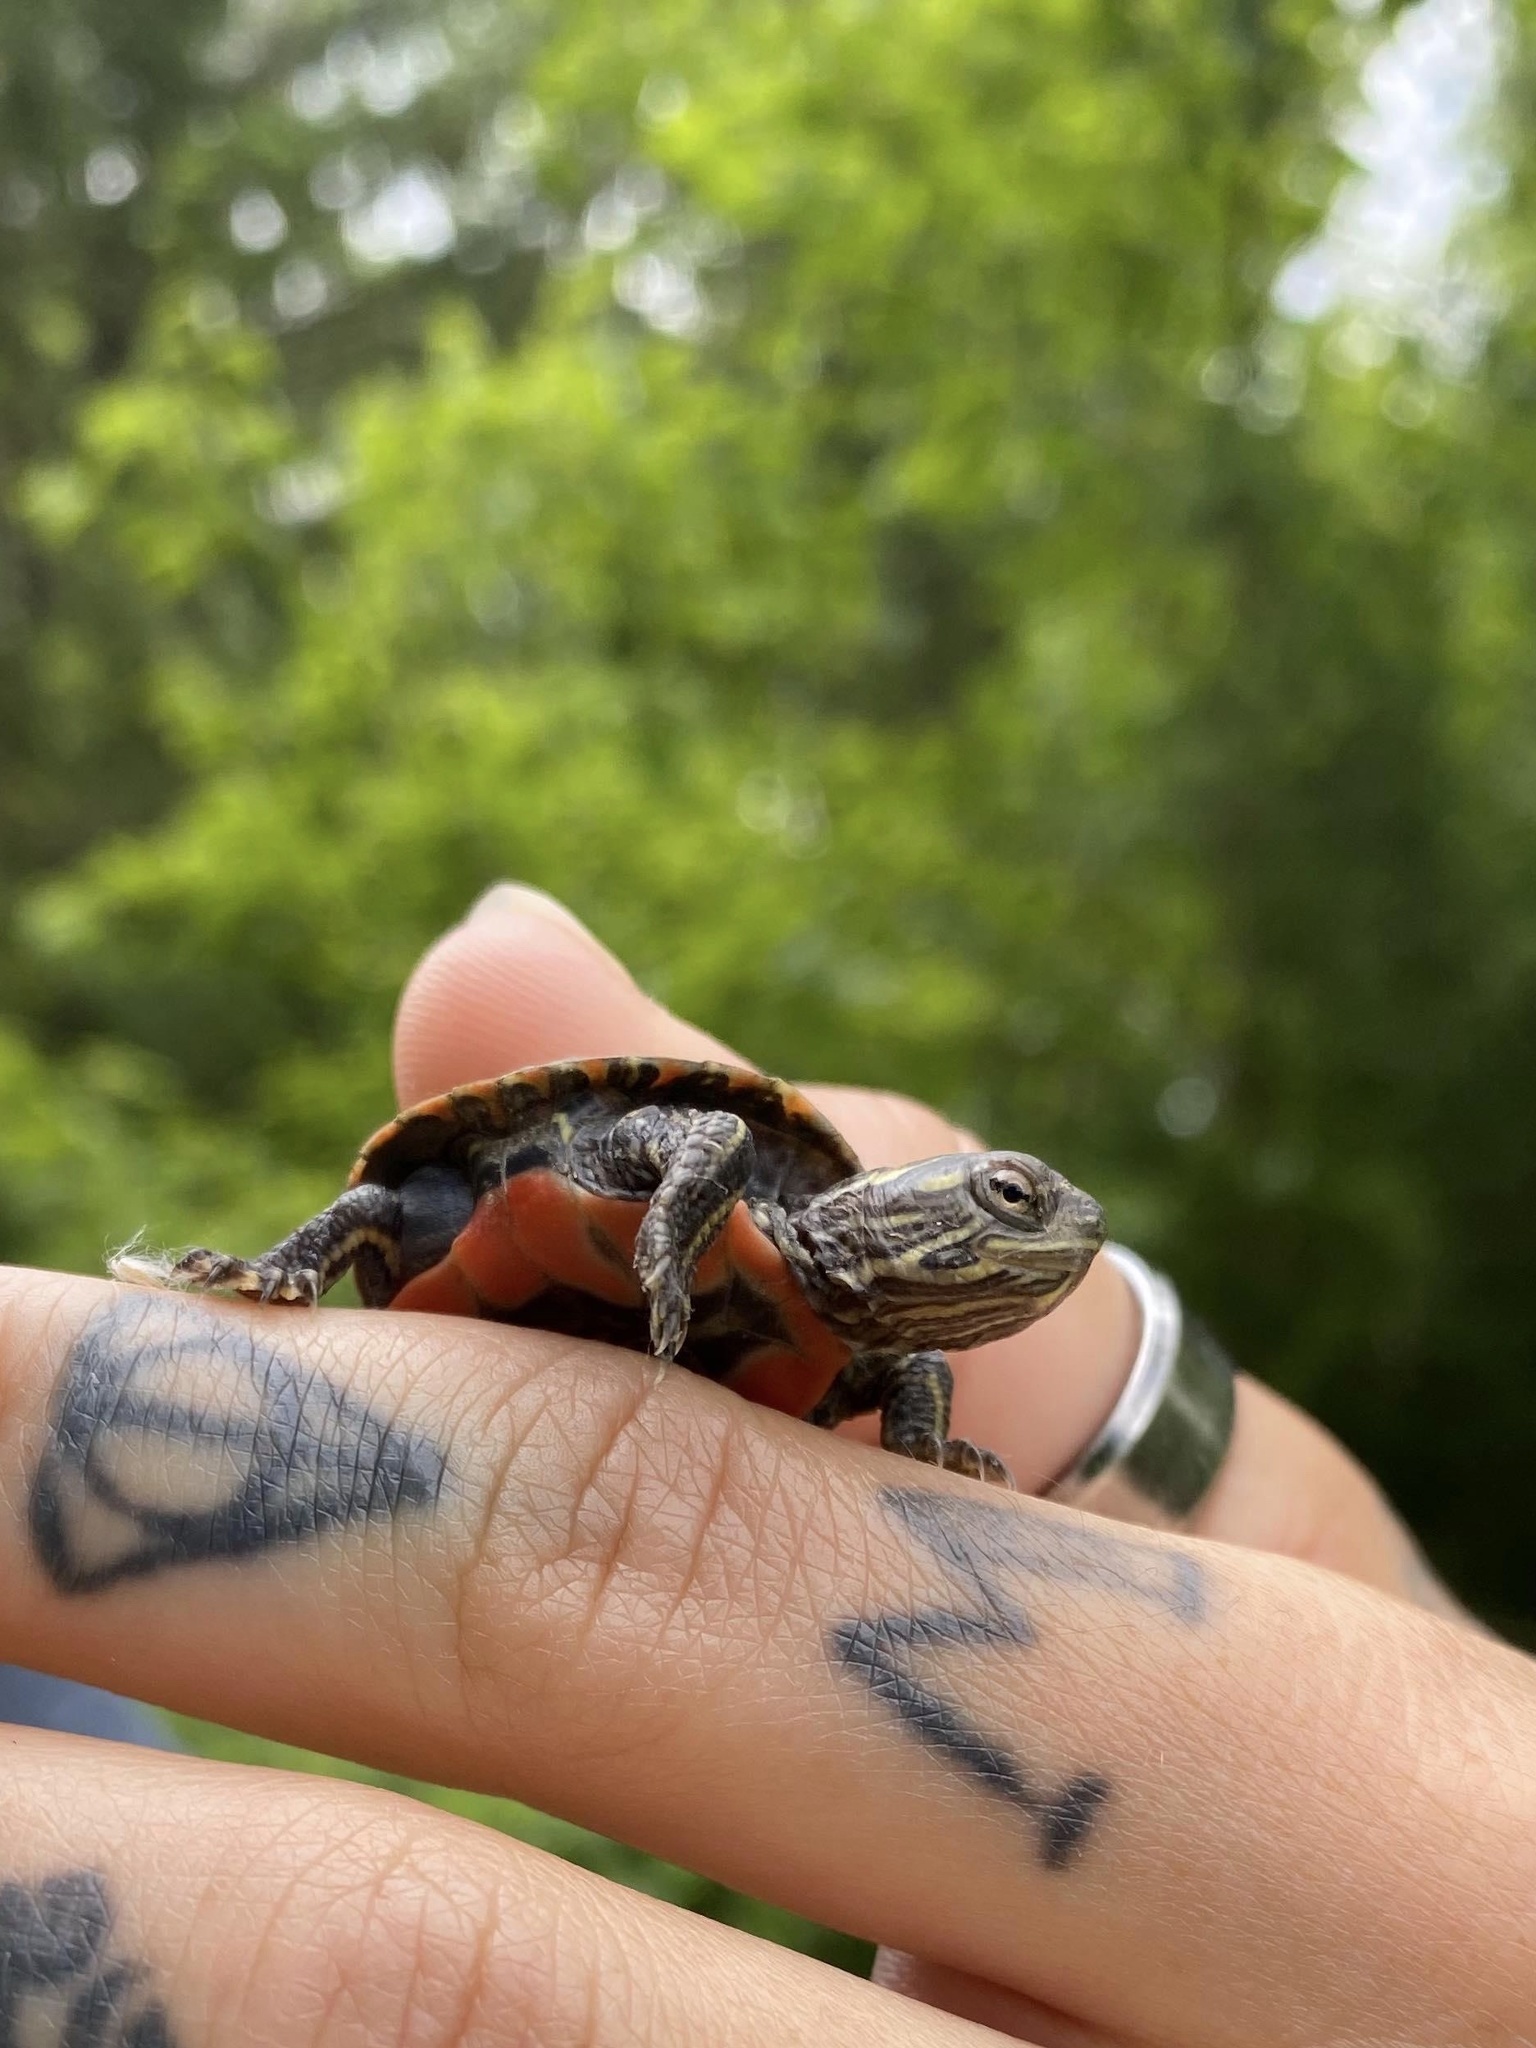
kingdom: Animalia
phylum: Chordata
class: Testudines
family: Emydidae
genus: Chrysemys
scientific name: Chrysemys picta
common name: Painted turtle
